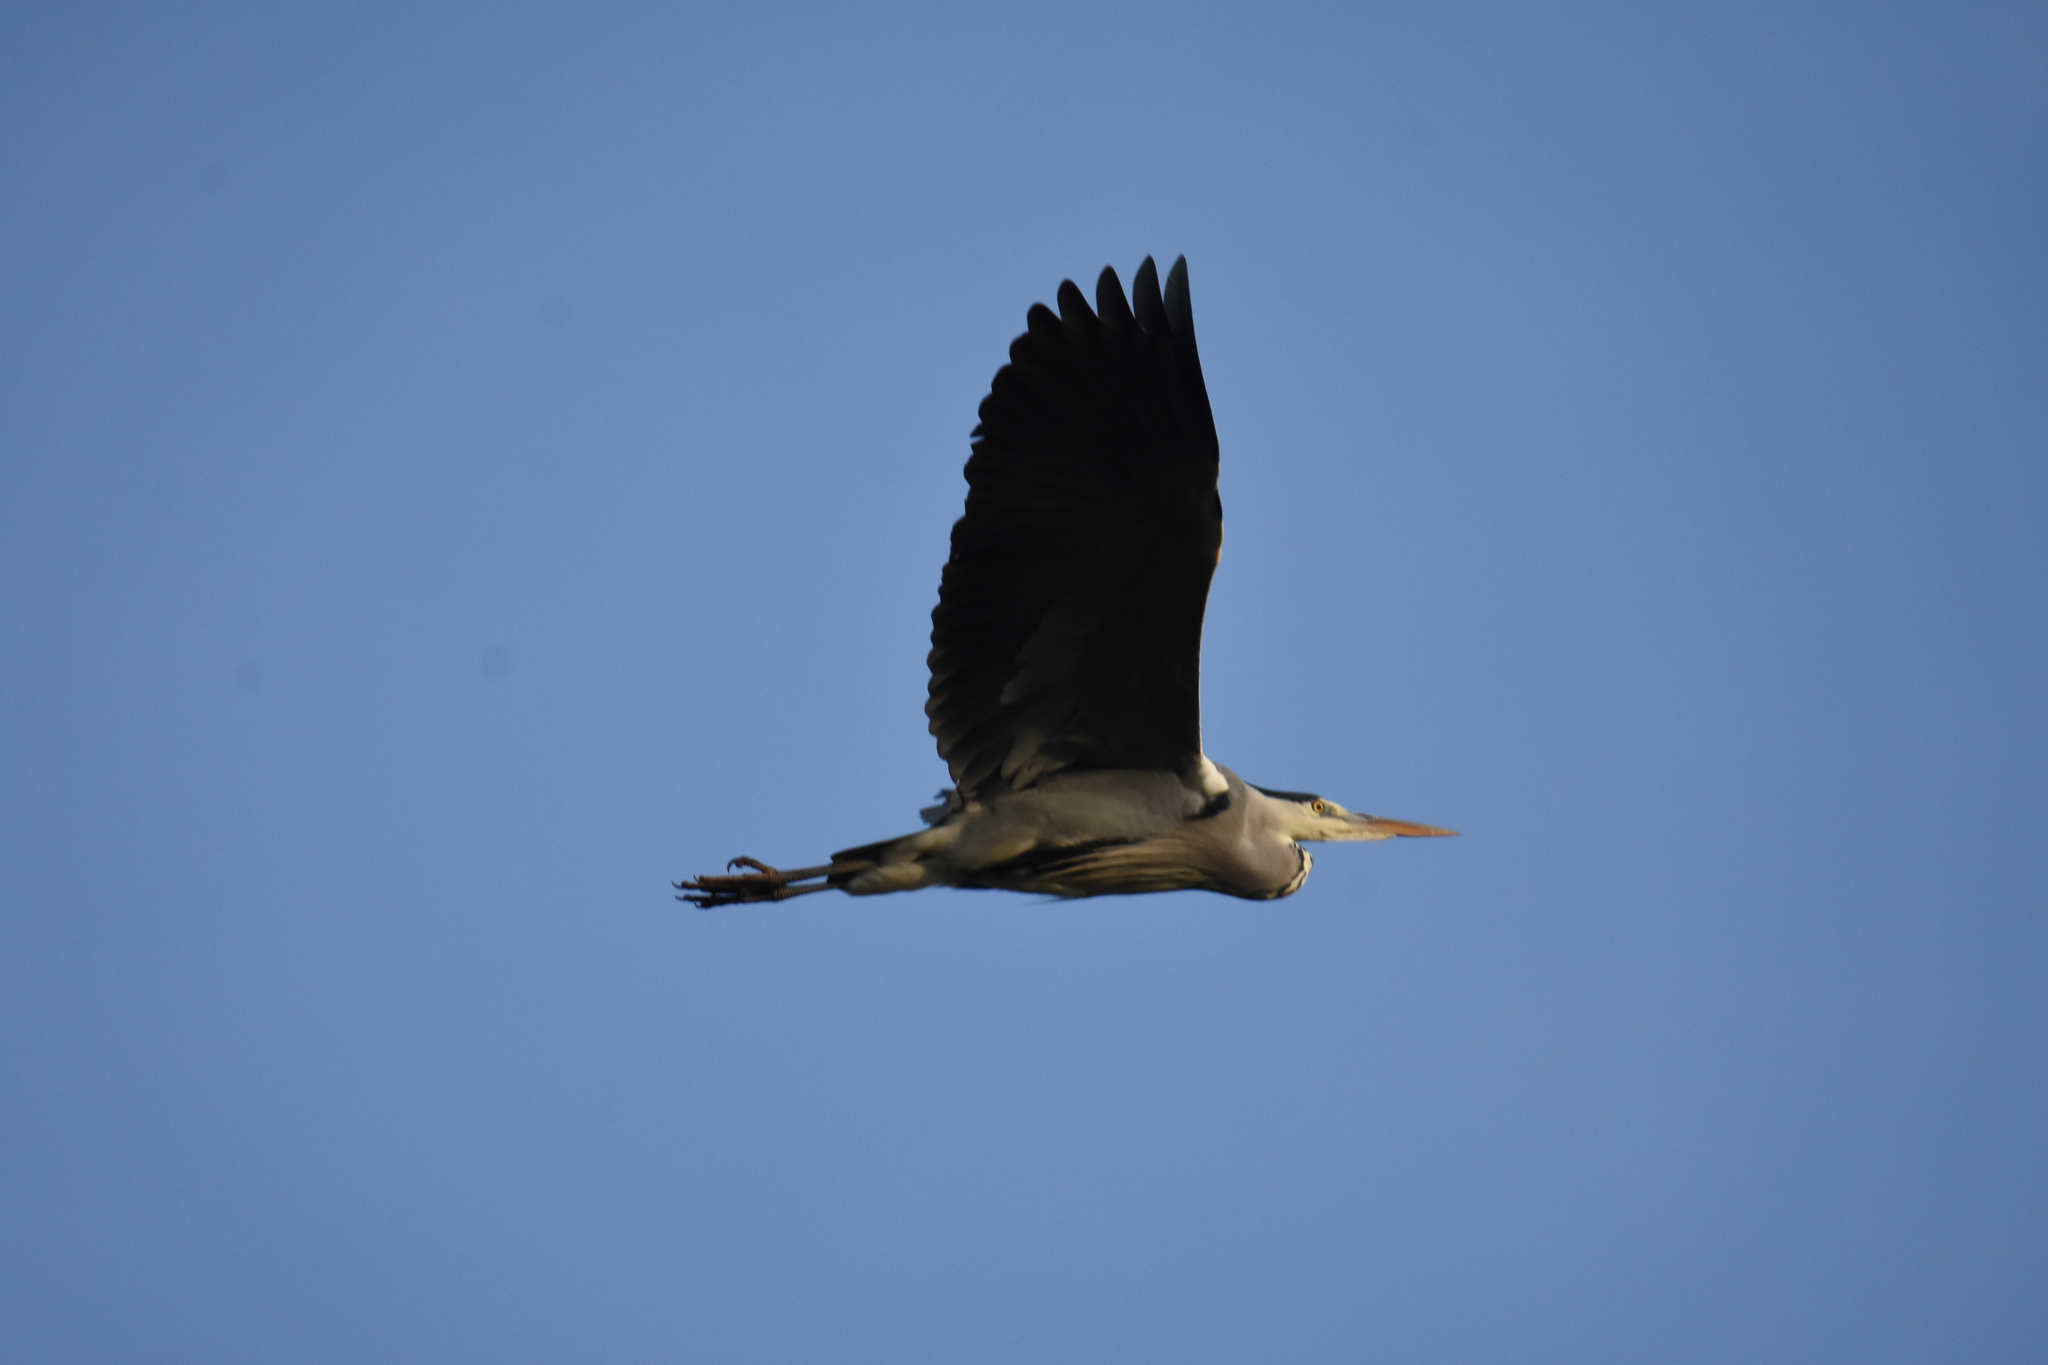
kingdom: Animalia
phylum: Chordata
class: Aves
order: Pelecaniformes
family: Ardeidae
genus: Ardea
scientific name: Ardea cinerea
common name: Grey heron
